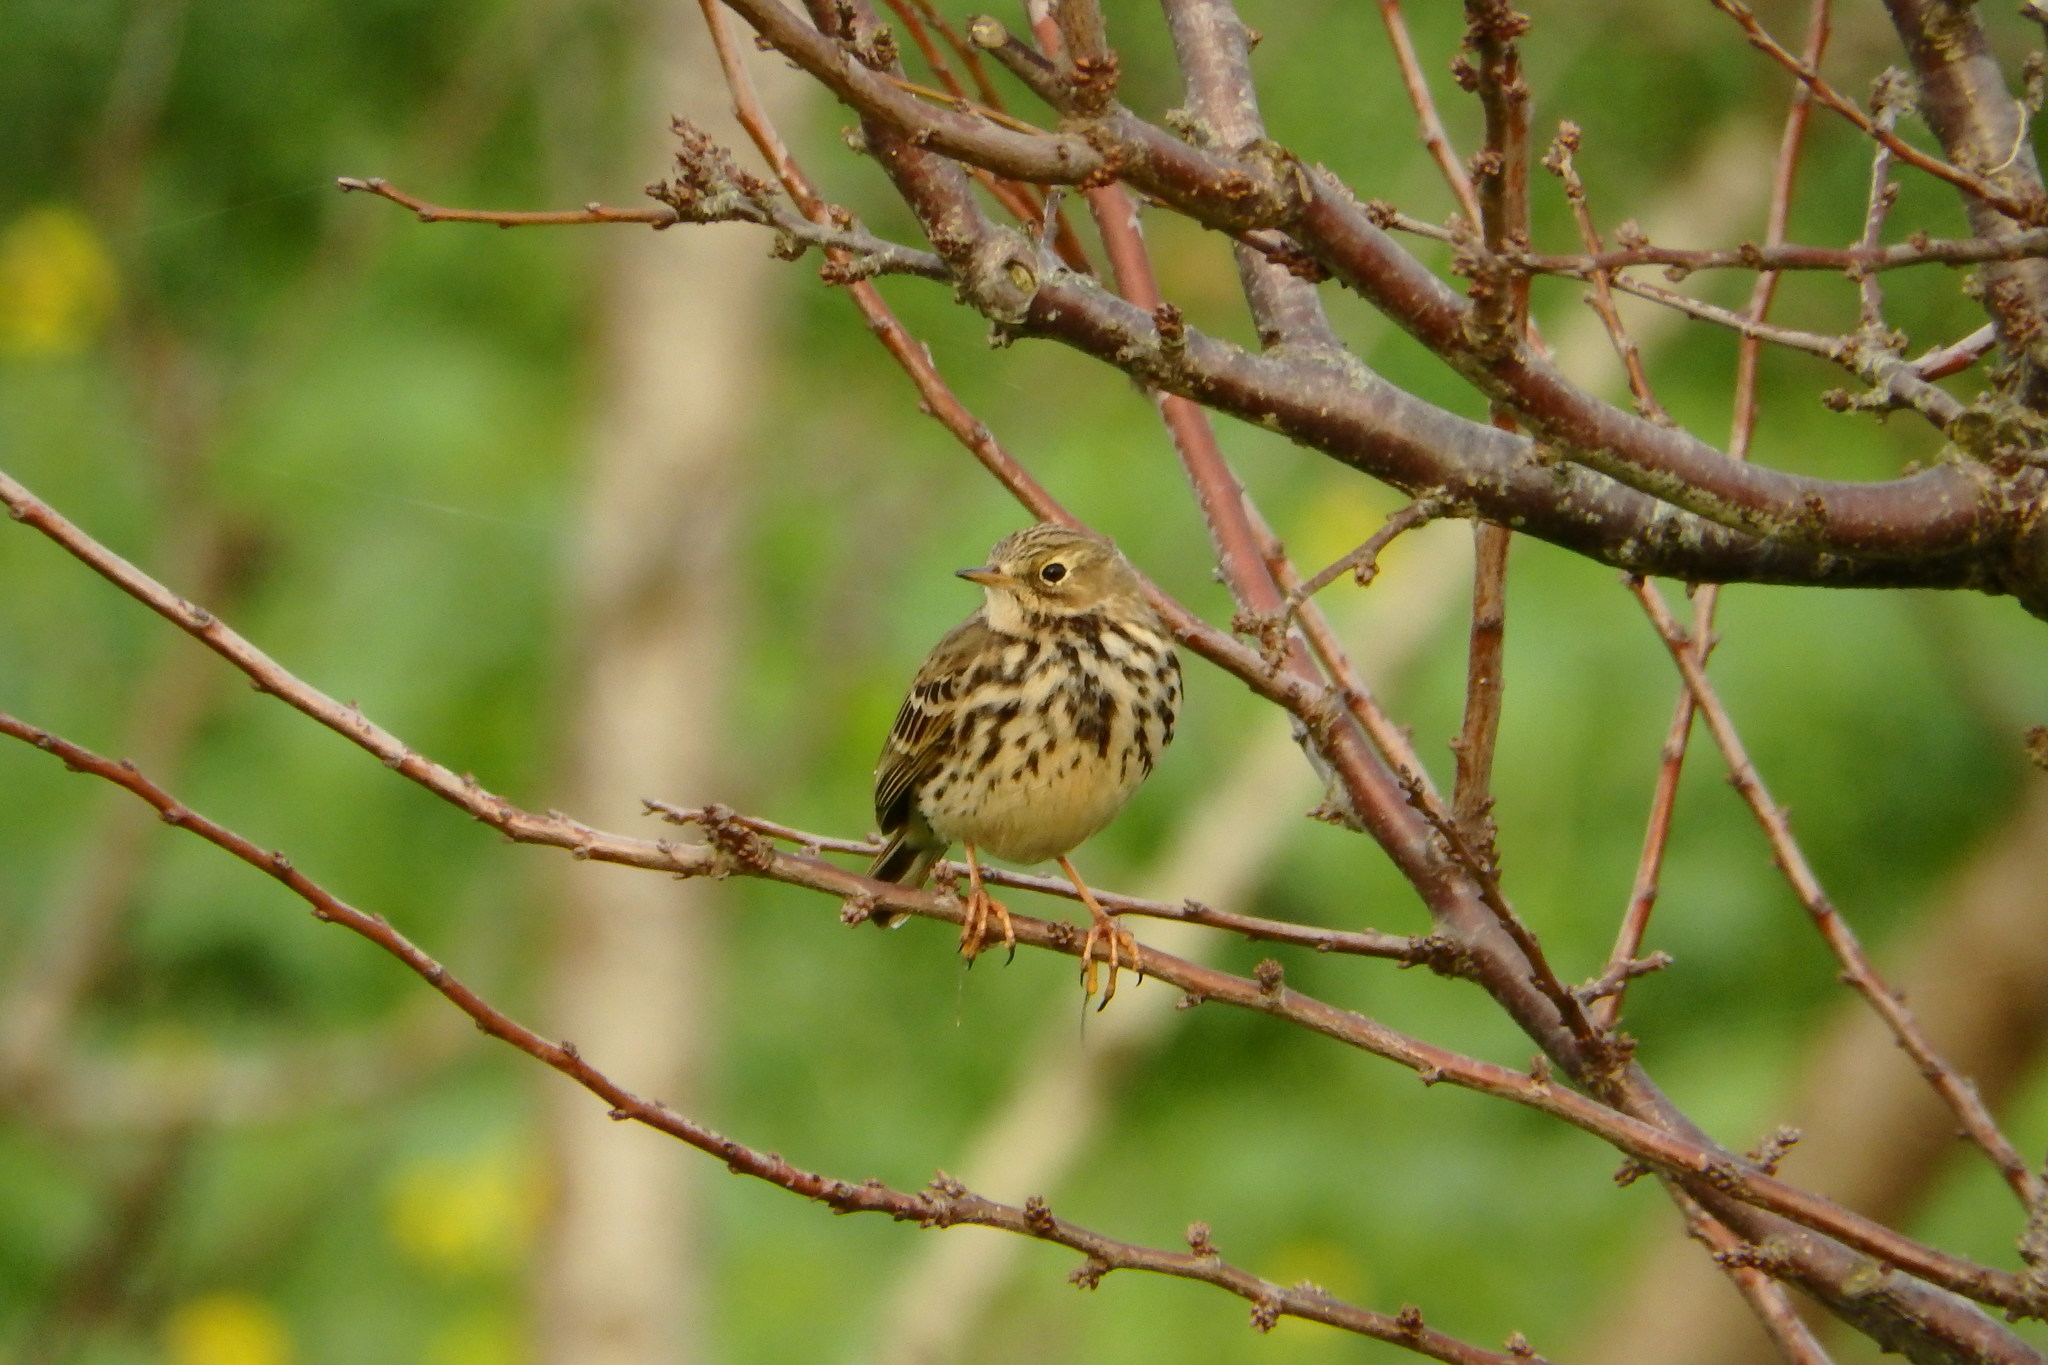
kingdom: Animalia
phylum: Chordata
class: Aves
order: Passeriformes
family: Motacillidae
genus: Anthus
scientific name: Anthus pratensis
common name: Meadow pipit
